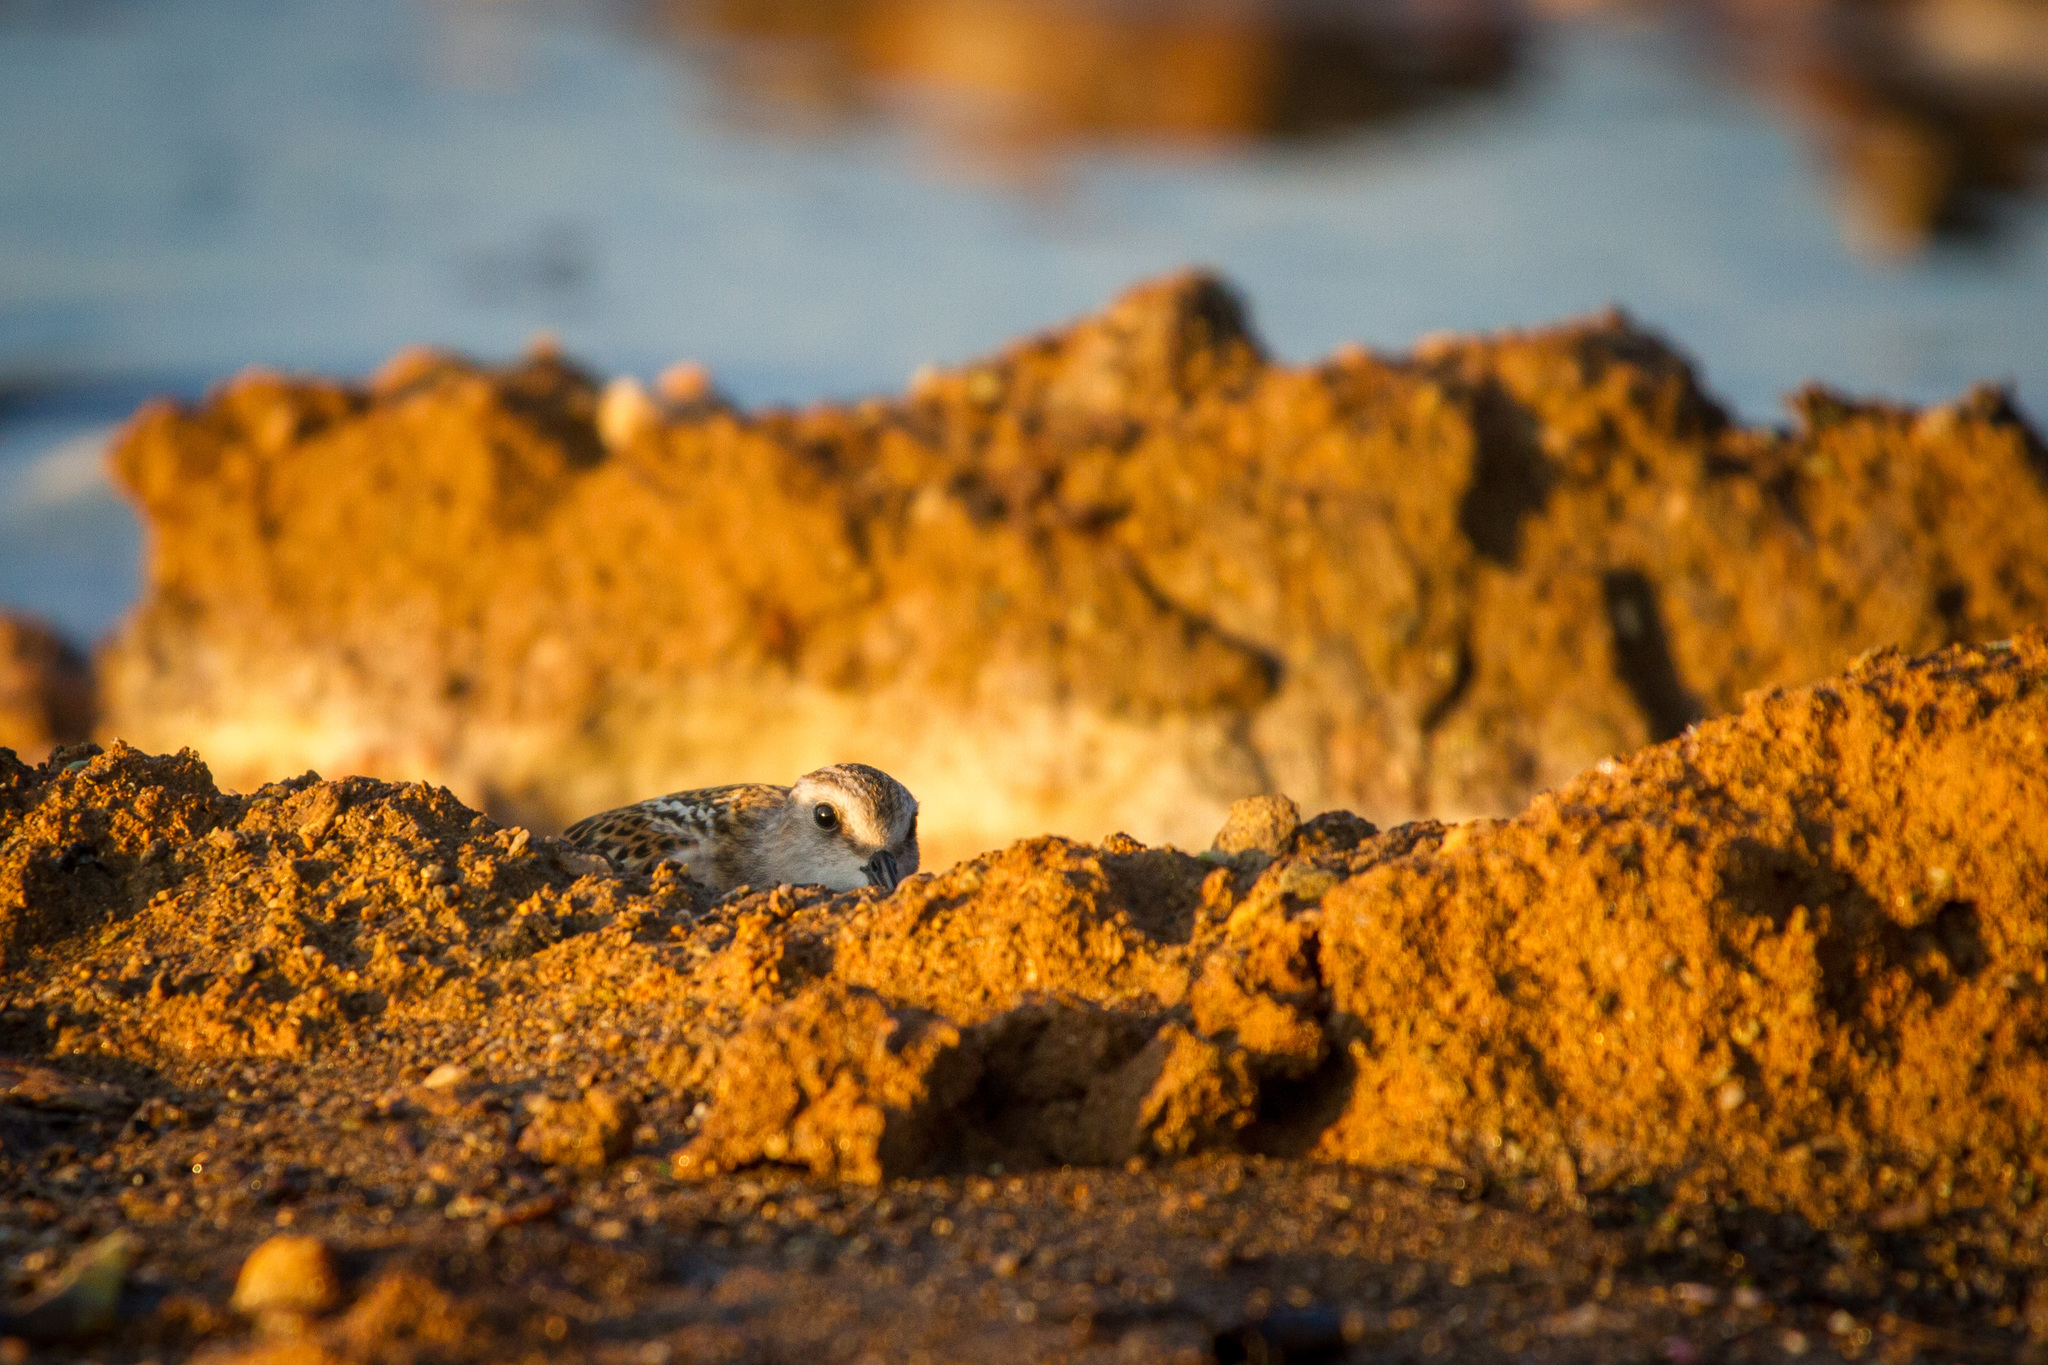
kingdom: Animalia
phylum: Chordata
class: Aves
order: Charadriiformes
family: Scolopacidae
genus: Calidris
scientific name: Calidris minuta
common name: Little stint
